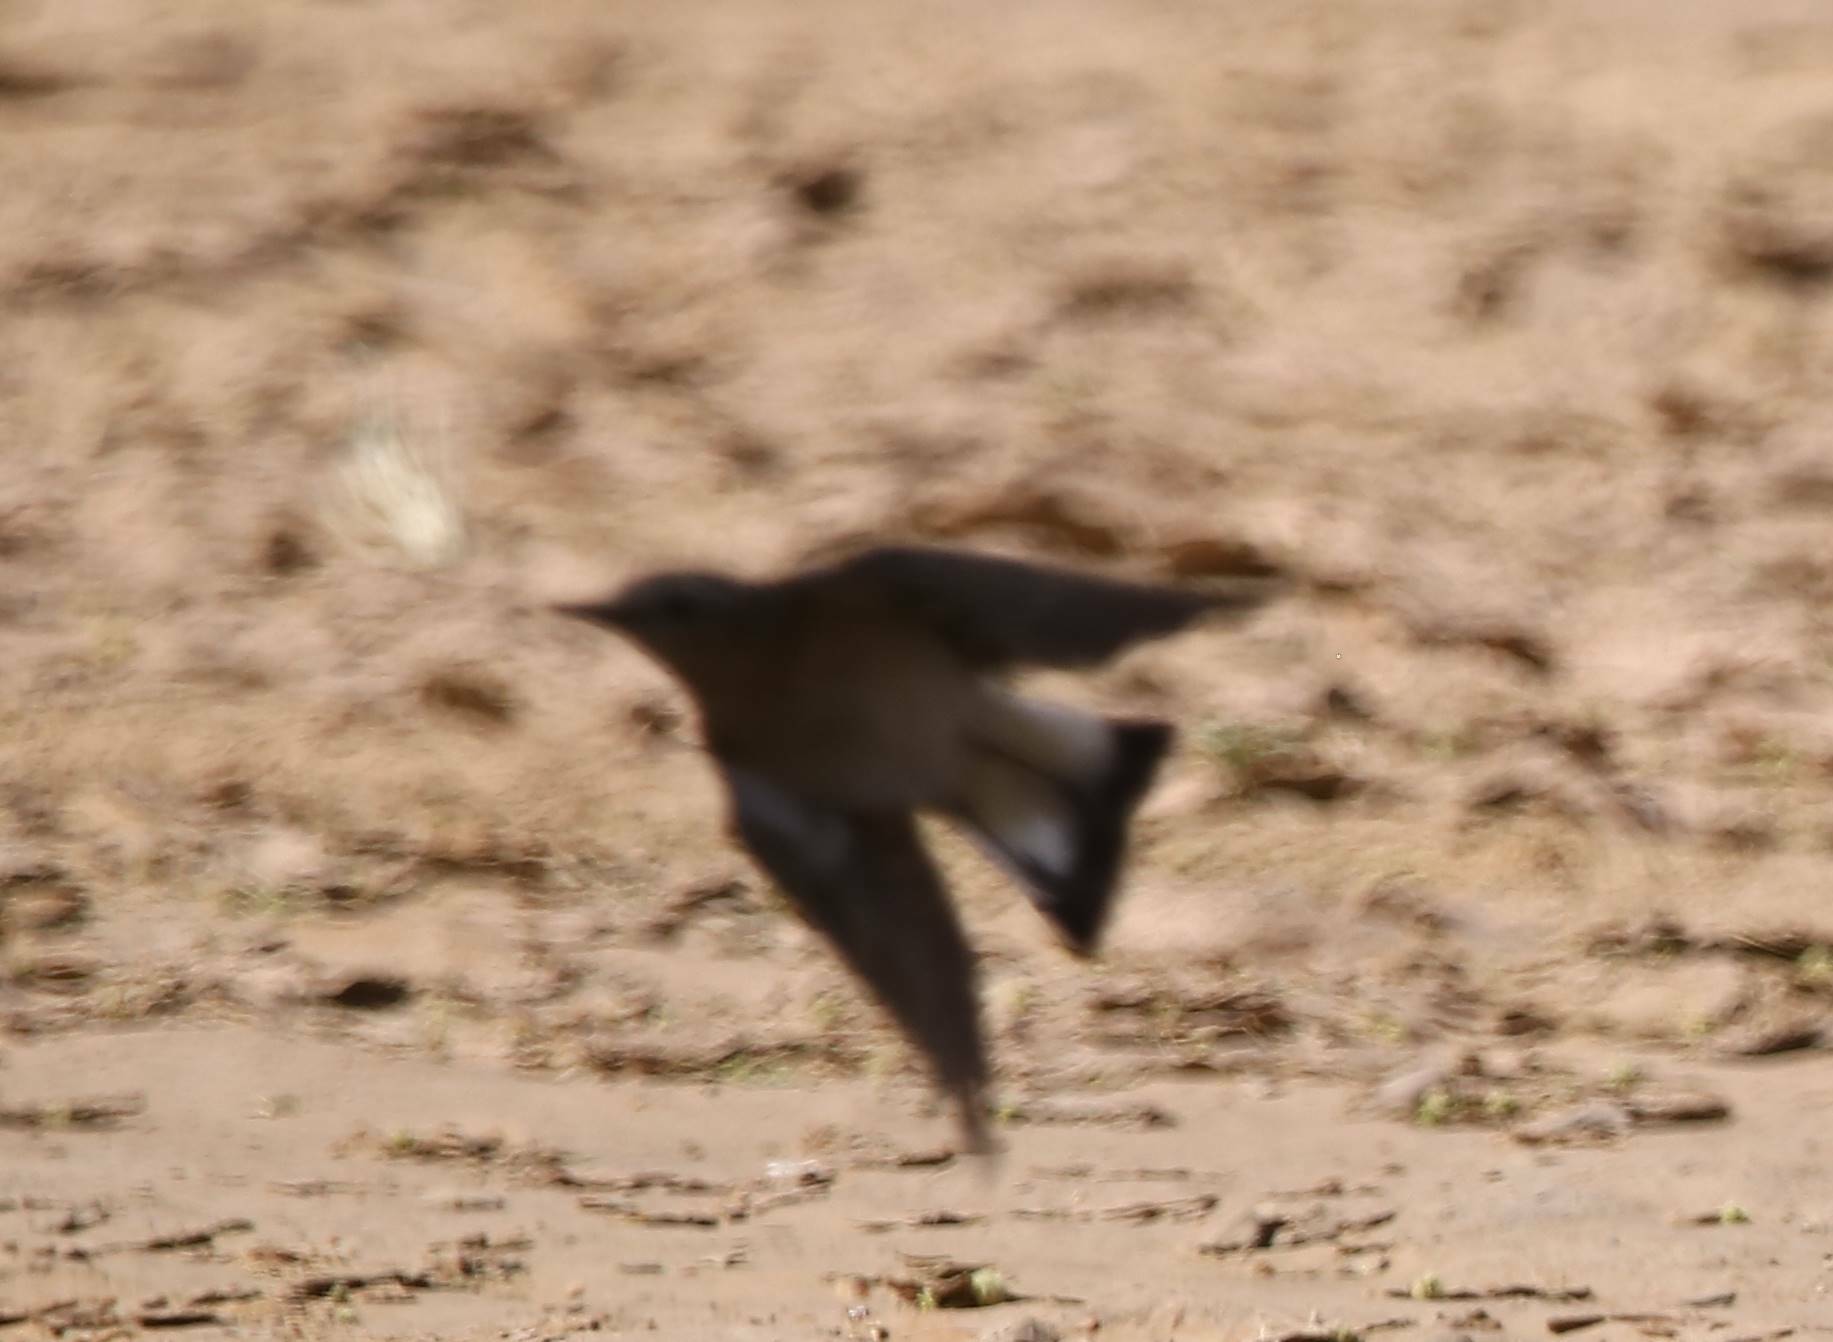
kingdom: Animalia
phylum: Chordata
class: Aves
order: Passeriformes
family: Muscicapidae
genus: Oenanthe
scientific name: Oenanthe isabellina
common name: Isabelline wheatear
